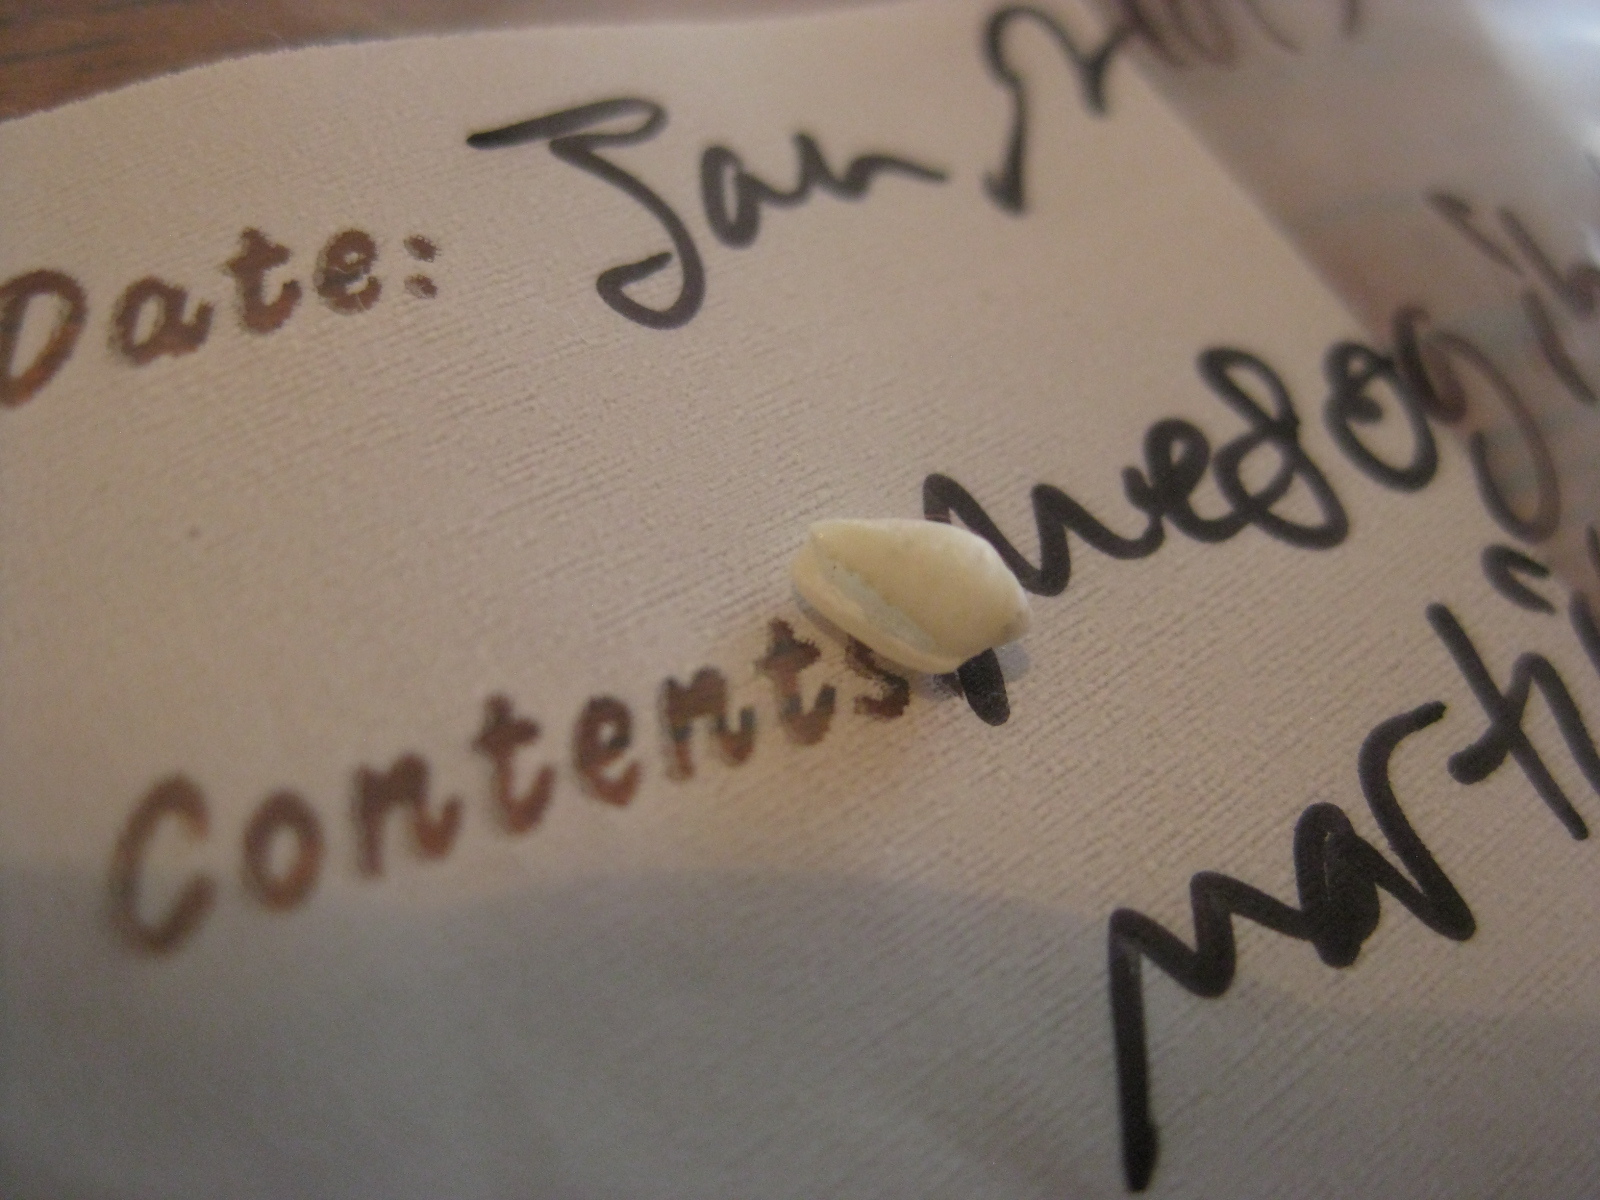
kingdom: Animalia
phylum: Mollusca
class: Gastropoda
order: Neogastropoda
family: Marginellidae
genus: Mesoginella
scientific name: Mesoginella koma
